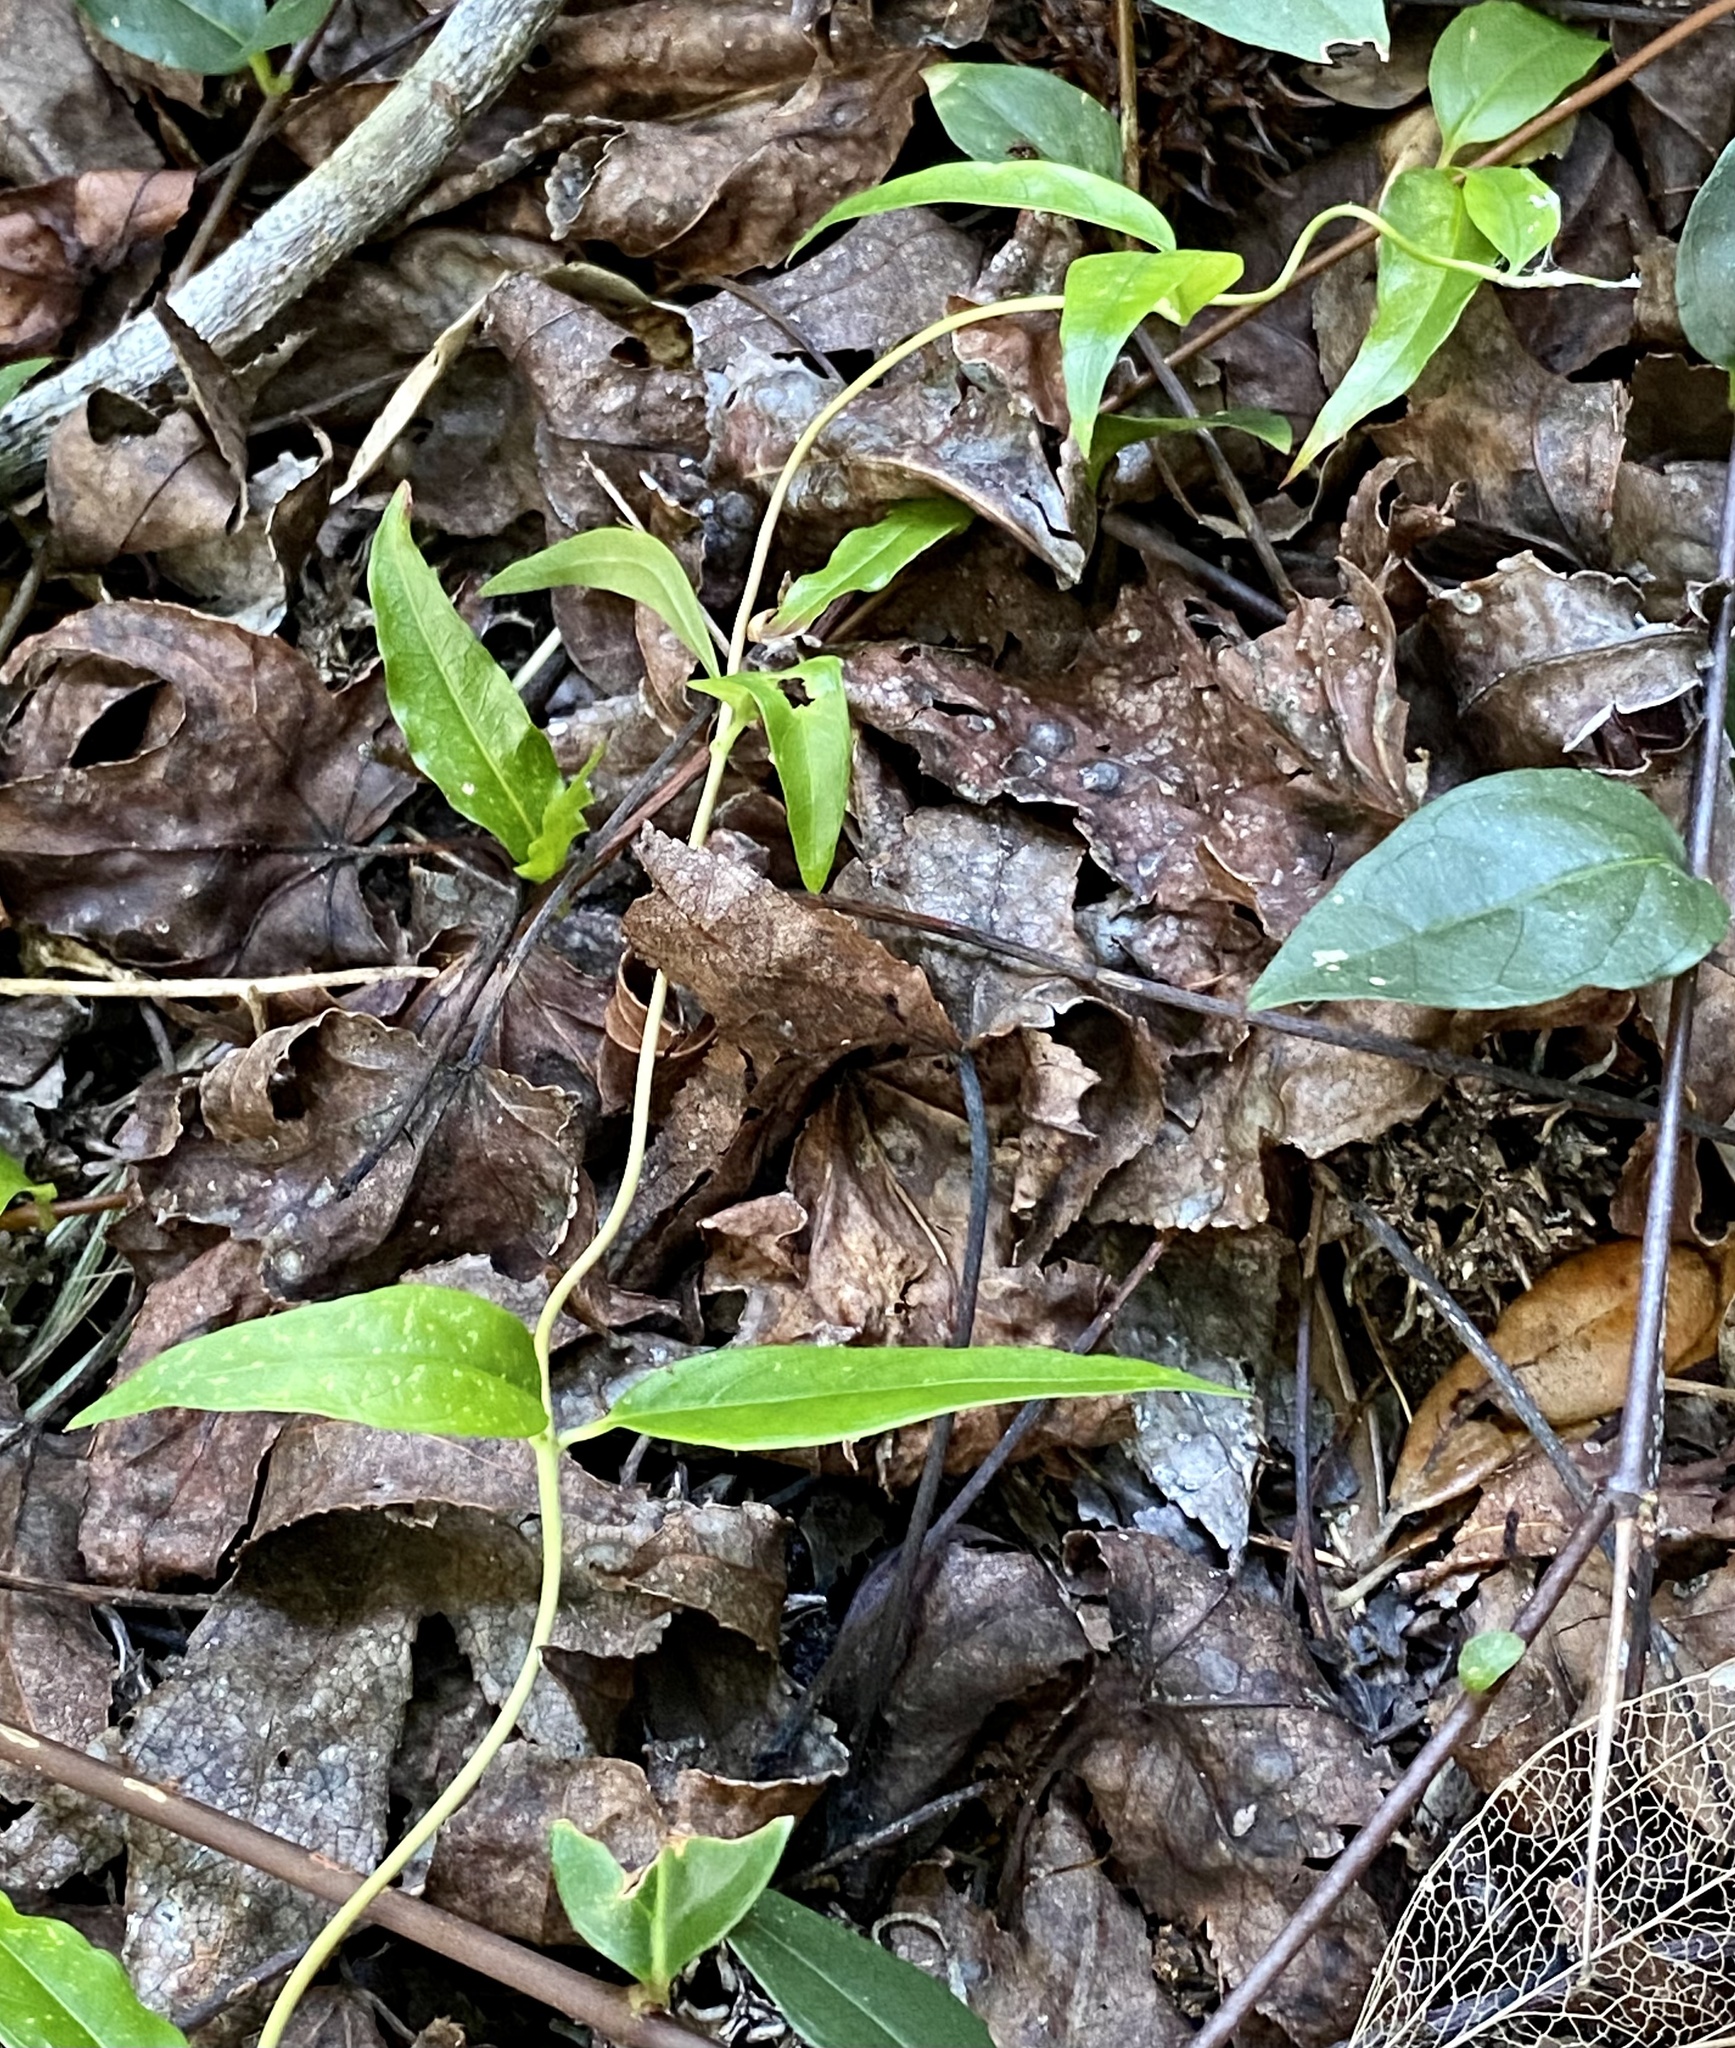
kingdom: Plantae
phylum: Tracheophyta
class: Magnoliopsida
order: Gentianales
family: Gelsemiaceae
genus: Gelsemium
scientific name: Gelsemium sempervirens
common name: Carolina-jasmine
